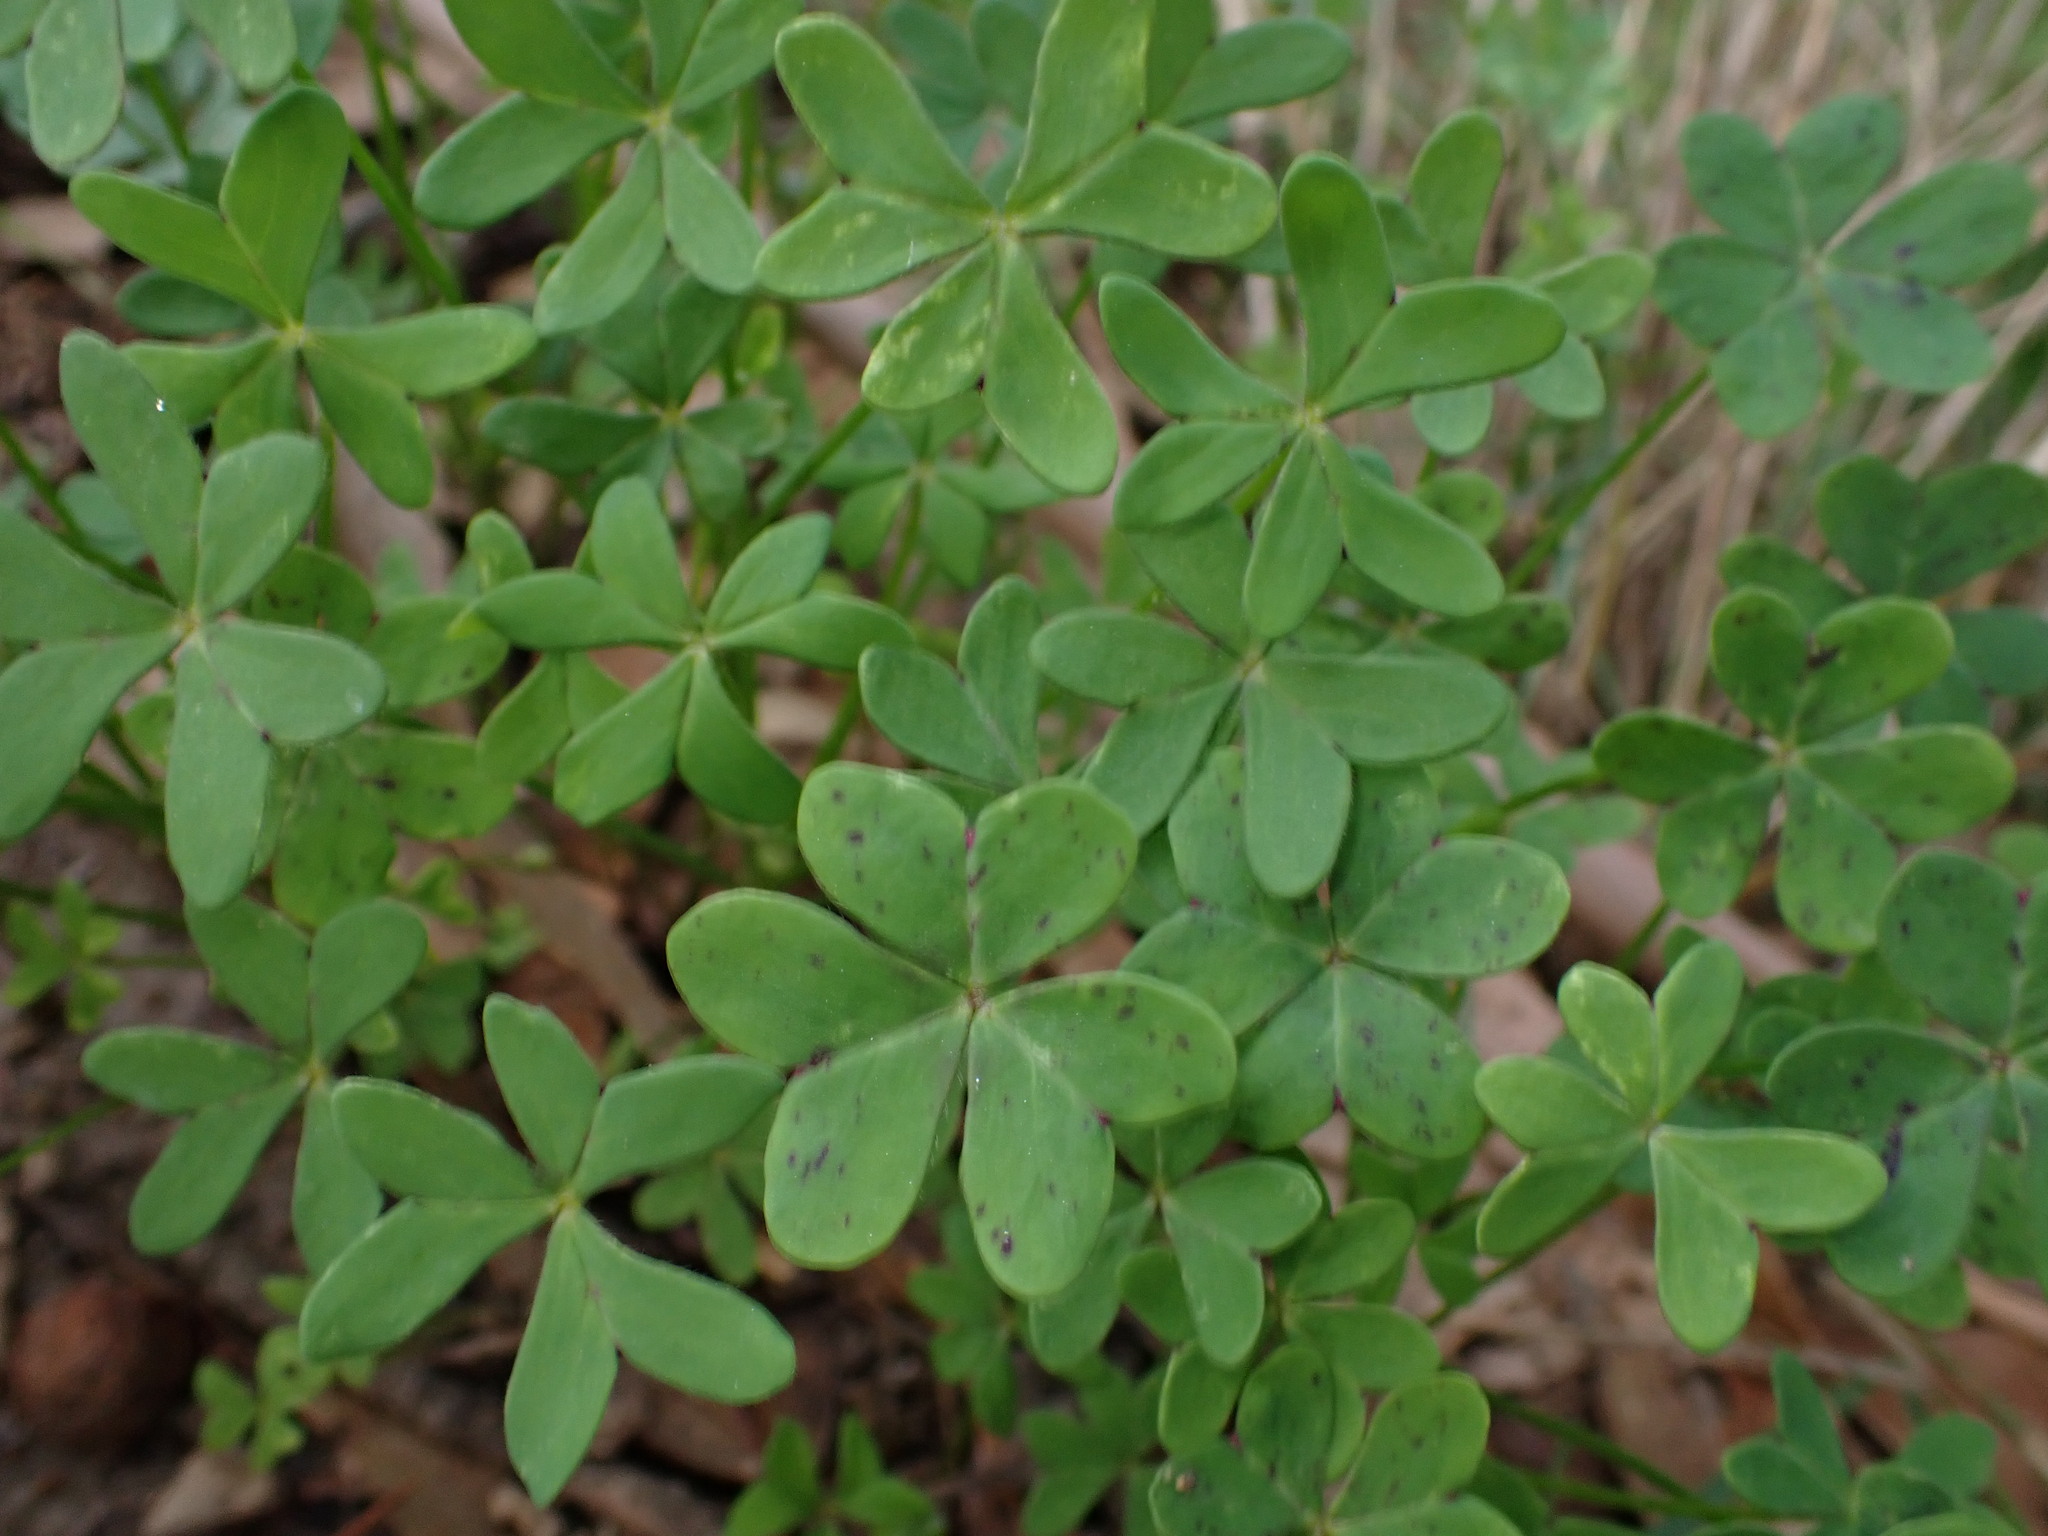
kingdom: Plantae
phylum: Tracheophyta
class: Magnoliopsida
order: Oxalidales
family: Oxalidaceae
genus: Oxalis
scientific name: Oxalis pes-caprae
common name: Bermuda-buttercup
